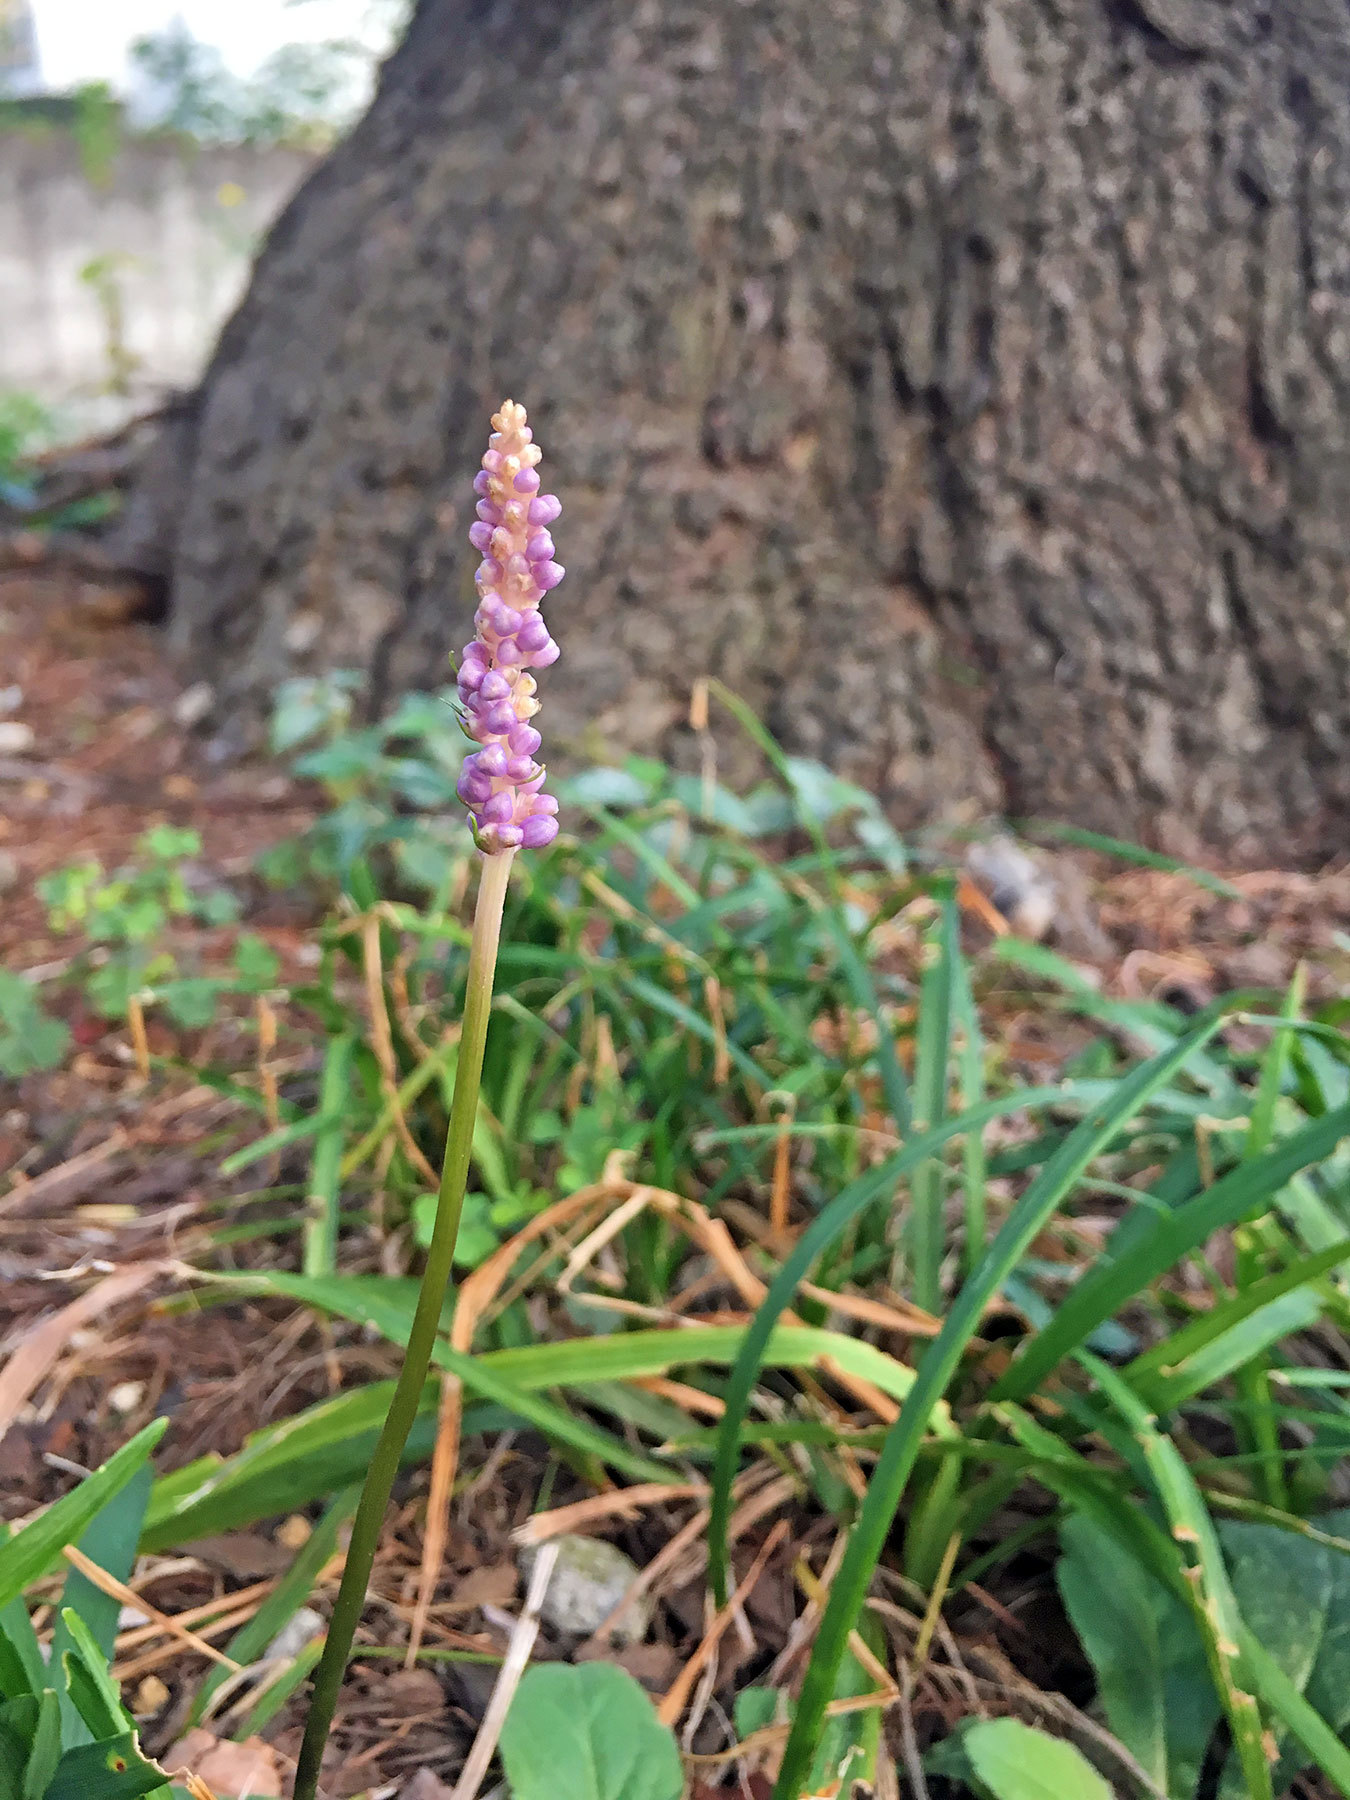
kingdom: Plantae
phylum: Tracheophyta
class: Liliopsida
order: Asparagales
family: Asparagaceae
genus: Liriope
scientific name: Liriope muscari
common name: Big blue lilyturf
